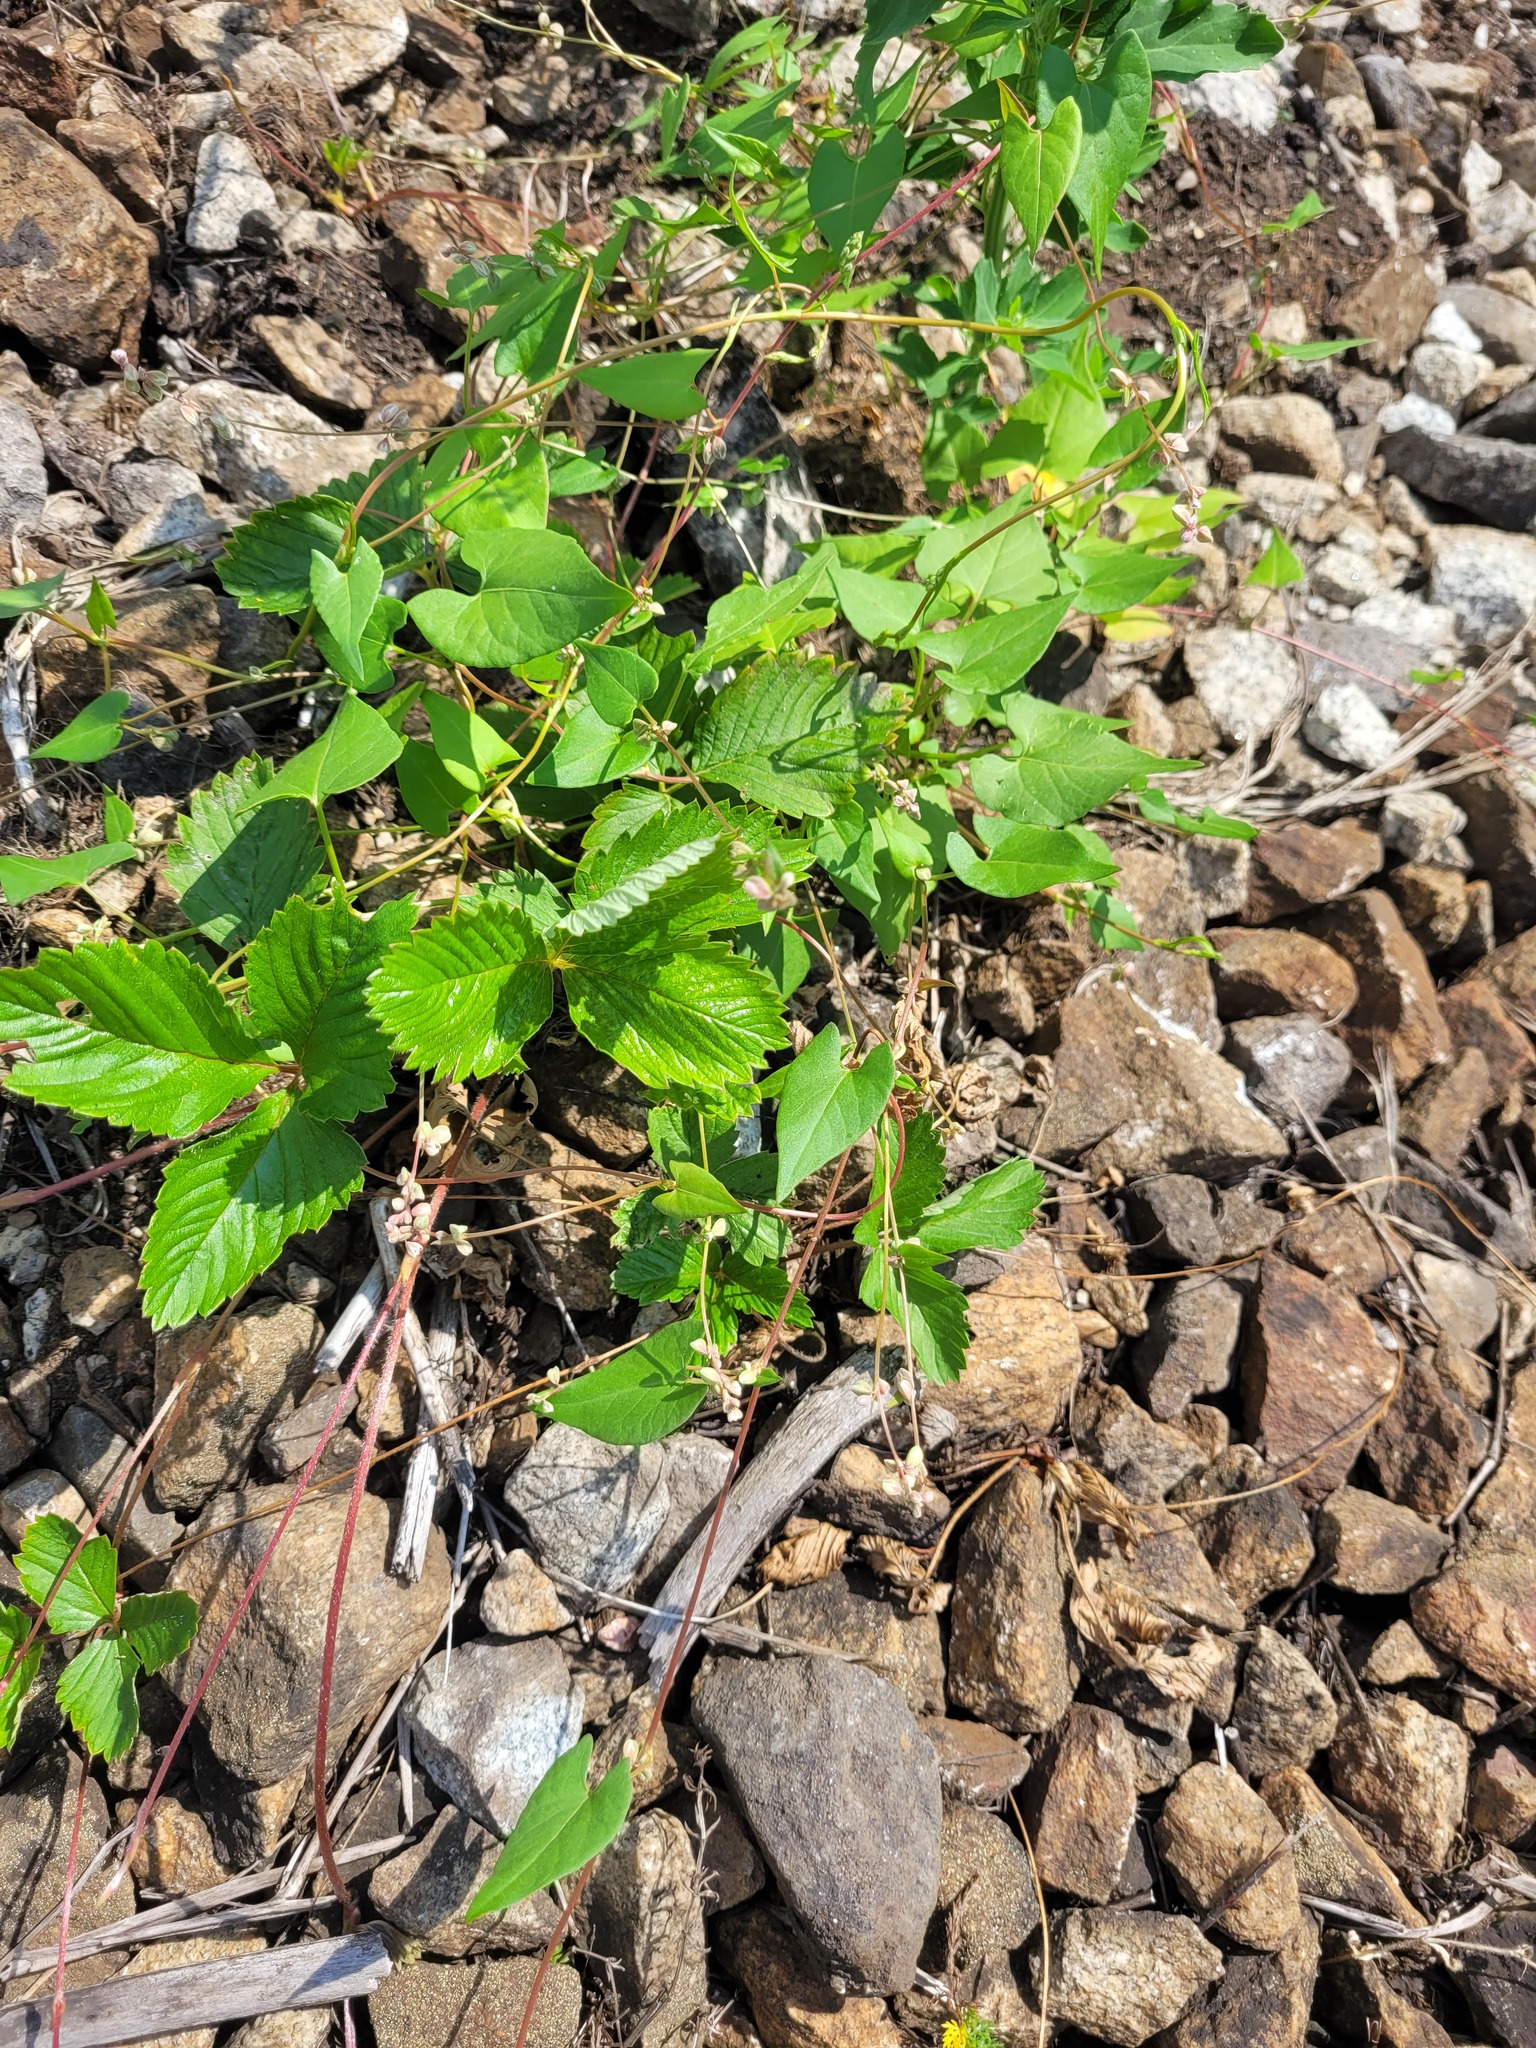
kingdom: Plantae
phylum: Tracheophyta
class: Magnoliopsida
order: Caryophyllales
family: Polygonaceae
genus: Fallopia
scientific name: Fallopia convolvulus
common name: Black bindweed
